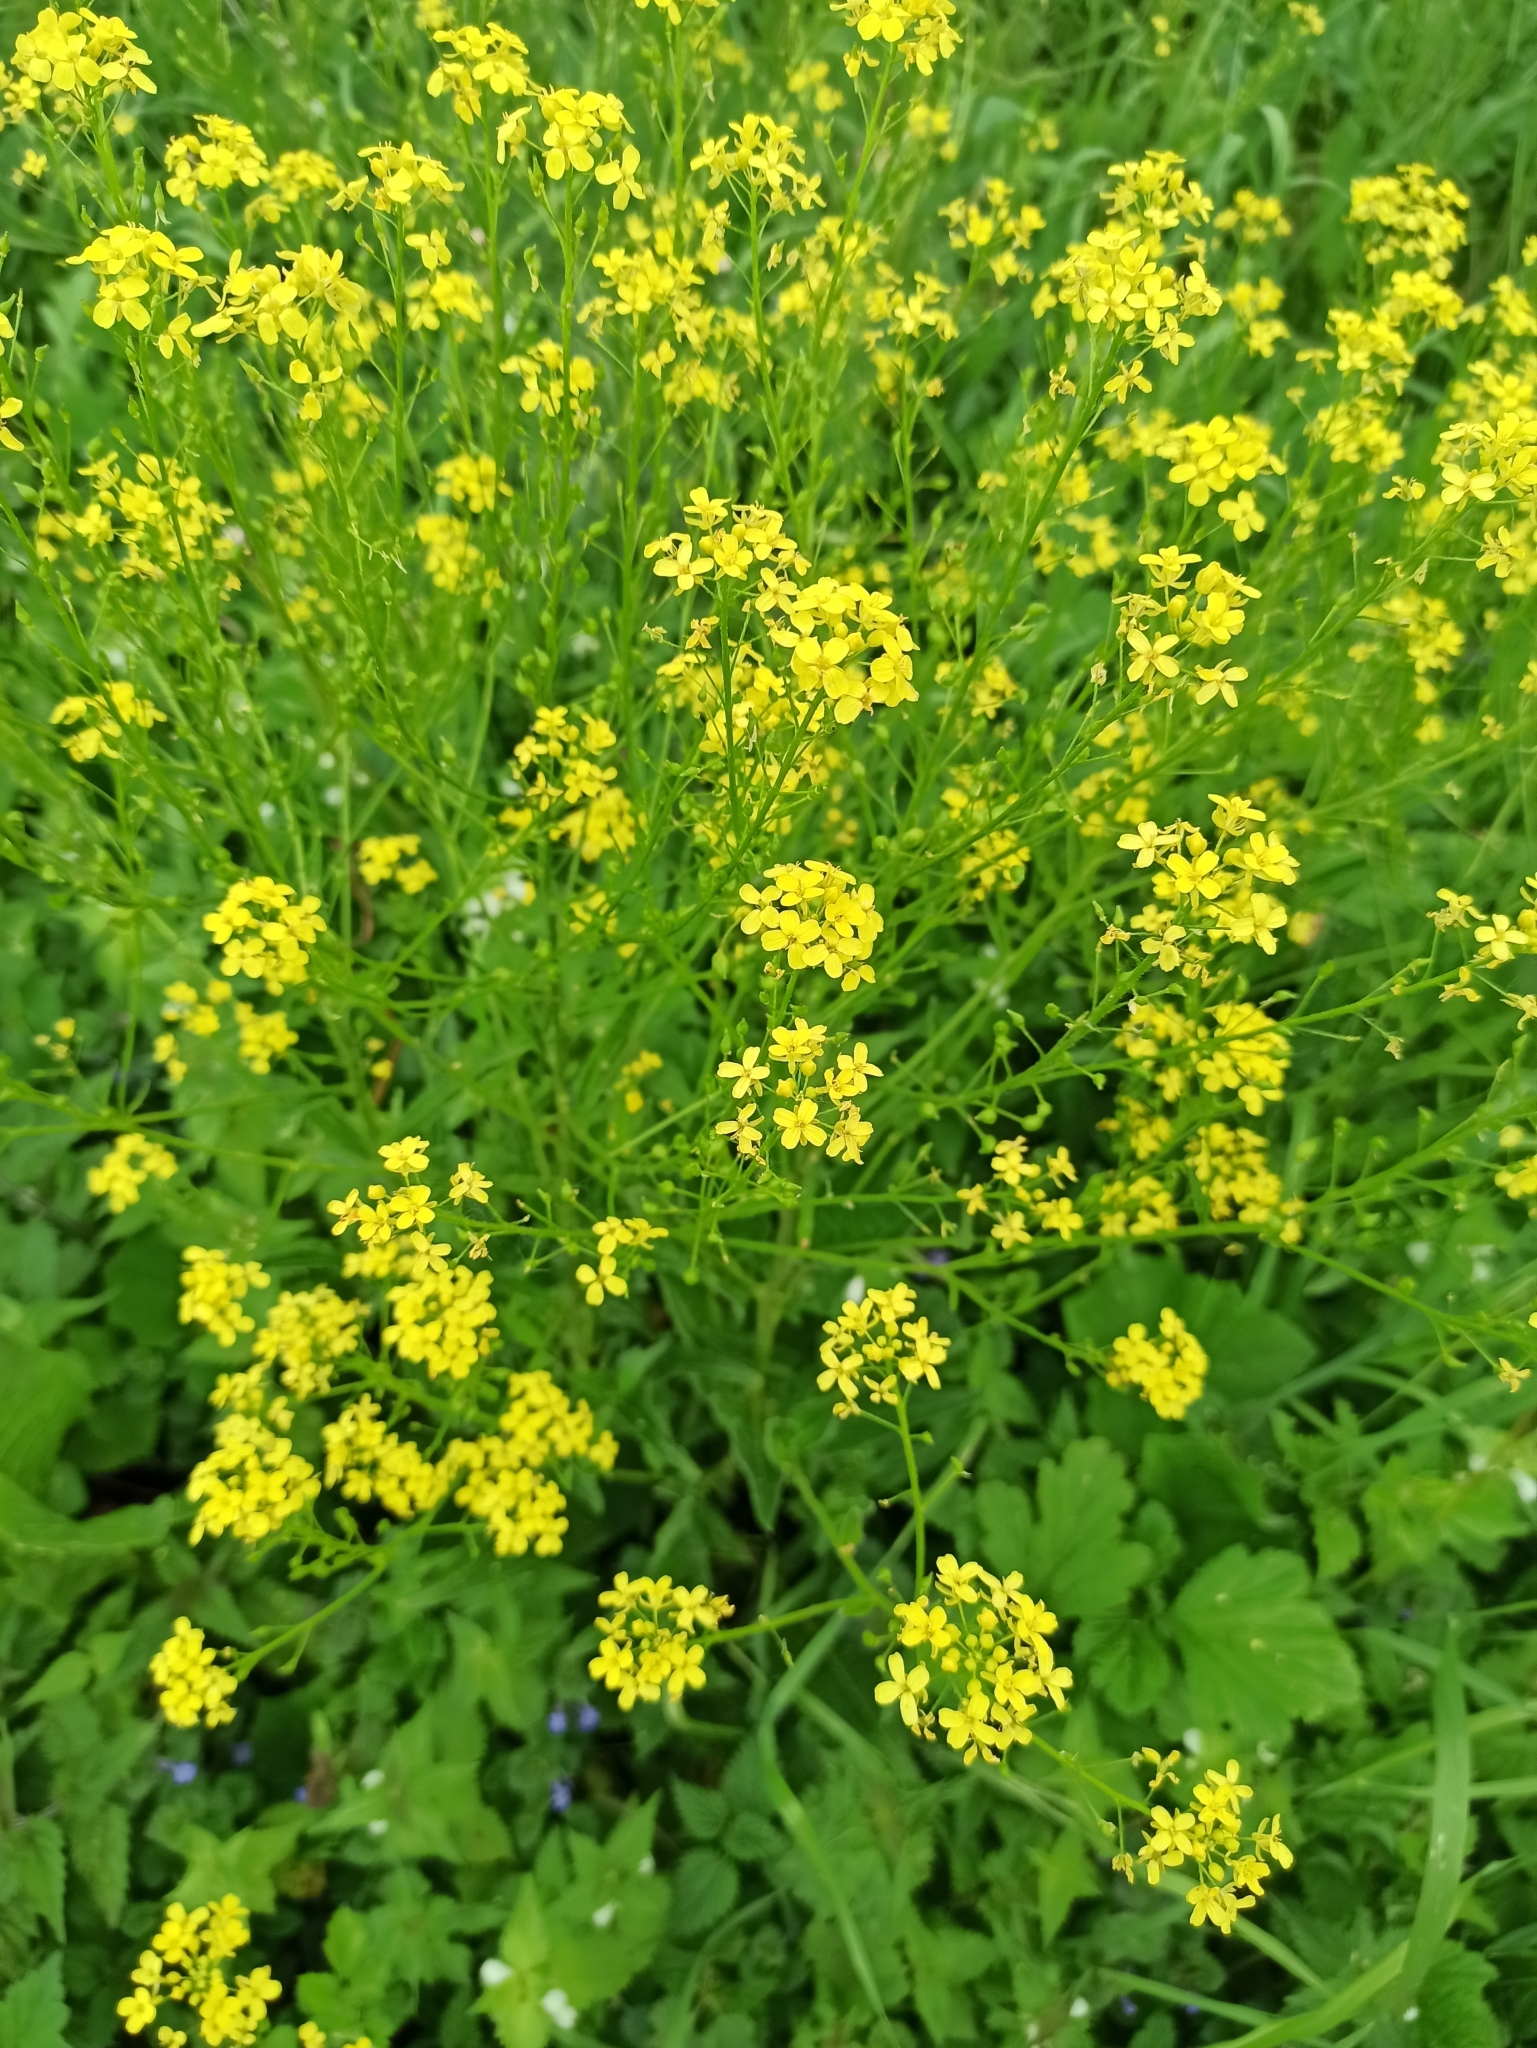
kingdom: Plantae
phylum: Tracheophyta
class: Magnoliopsida
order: Brassicales
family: Brassicaceae
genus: Bunias
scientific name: Bunias orientalis
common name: Warty-cabbage
